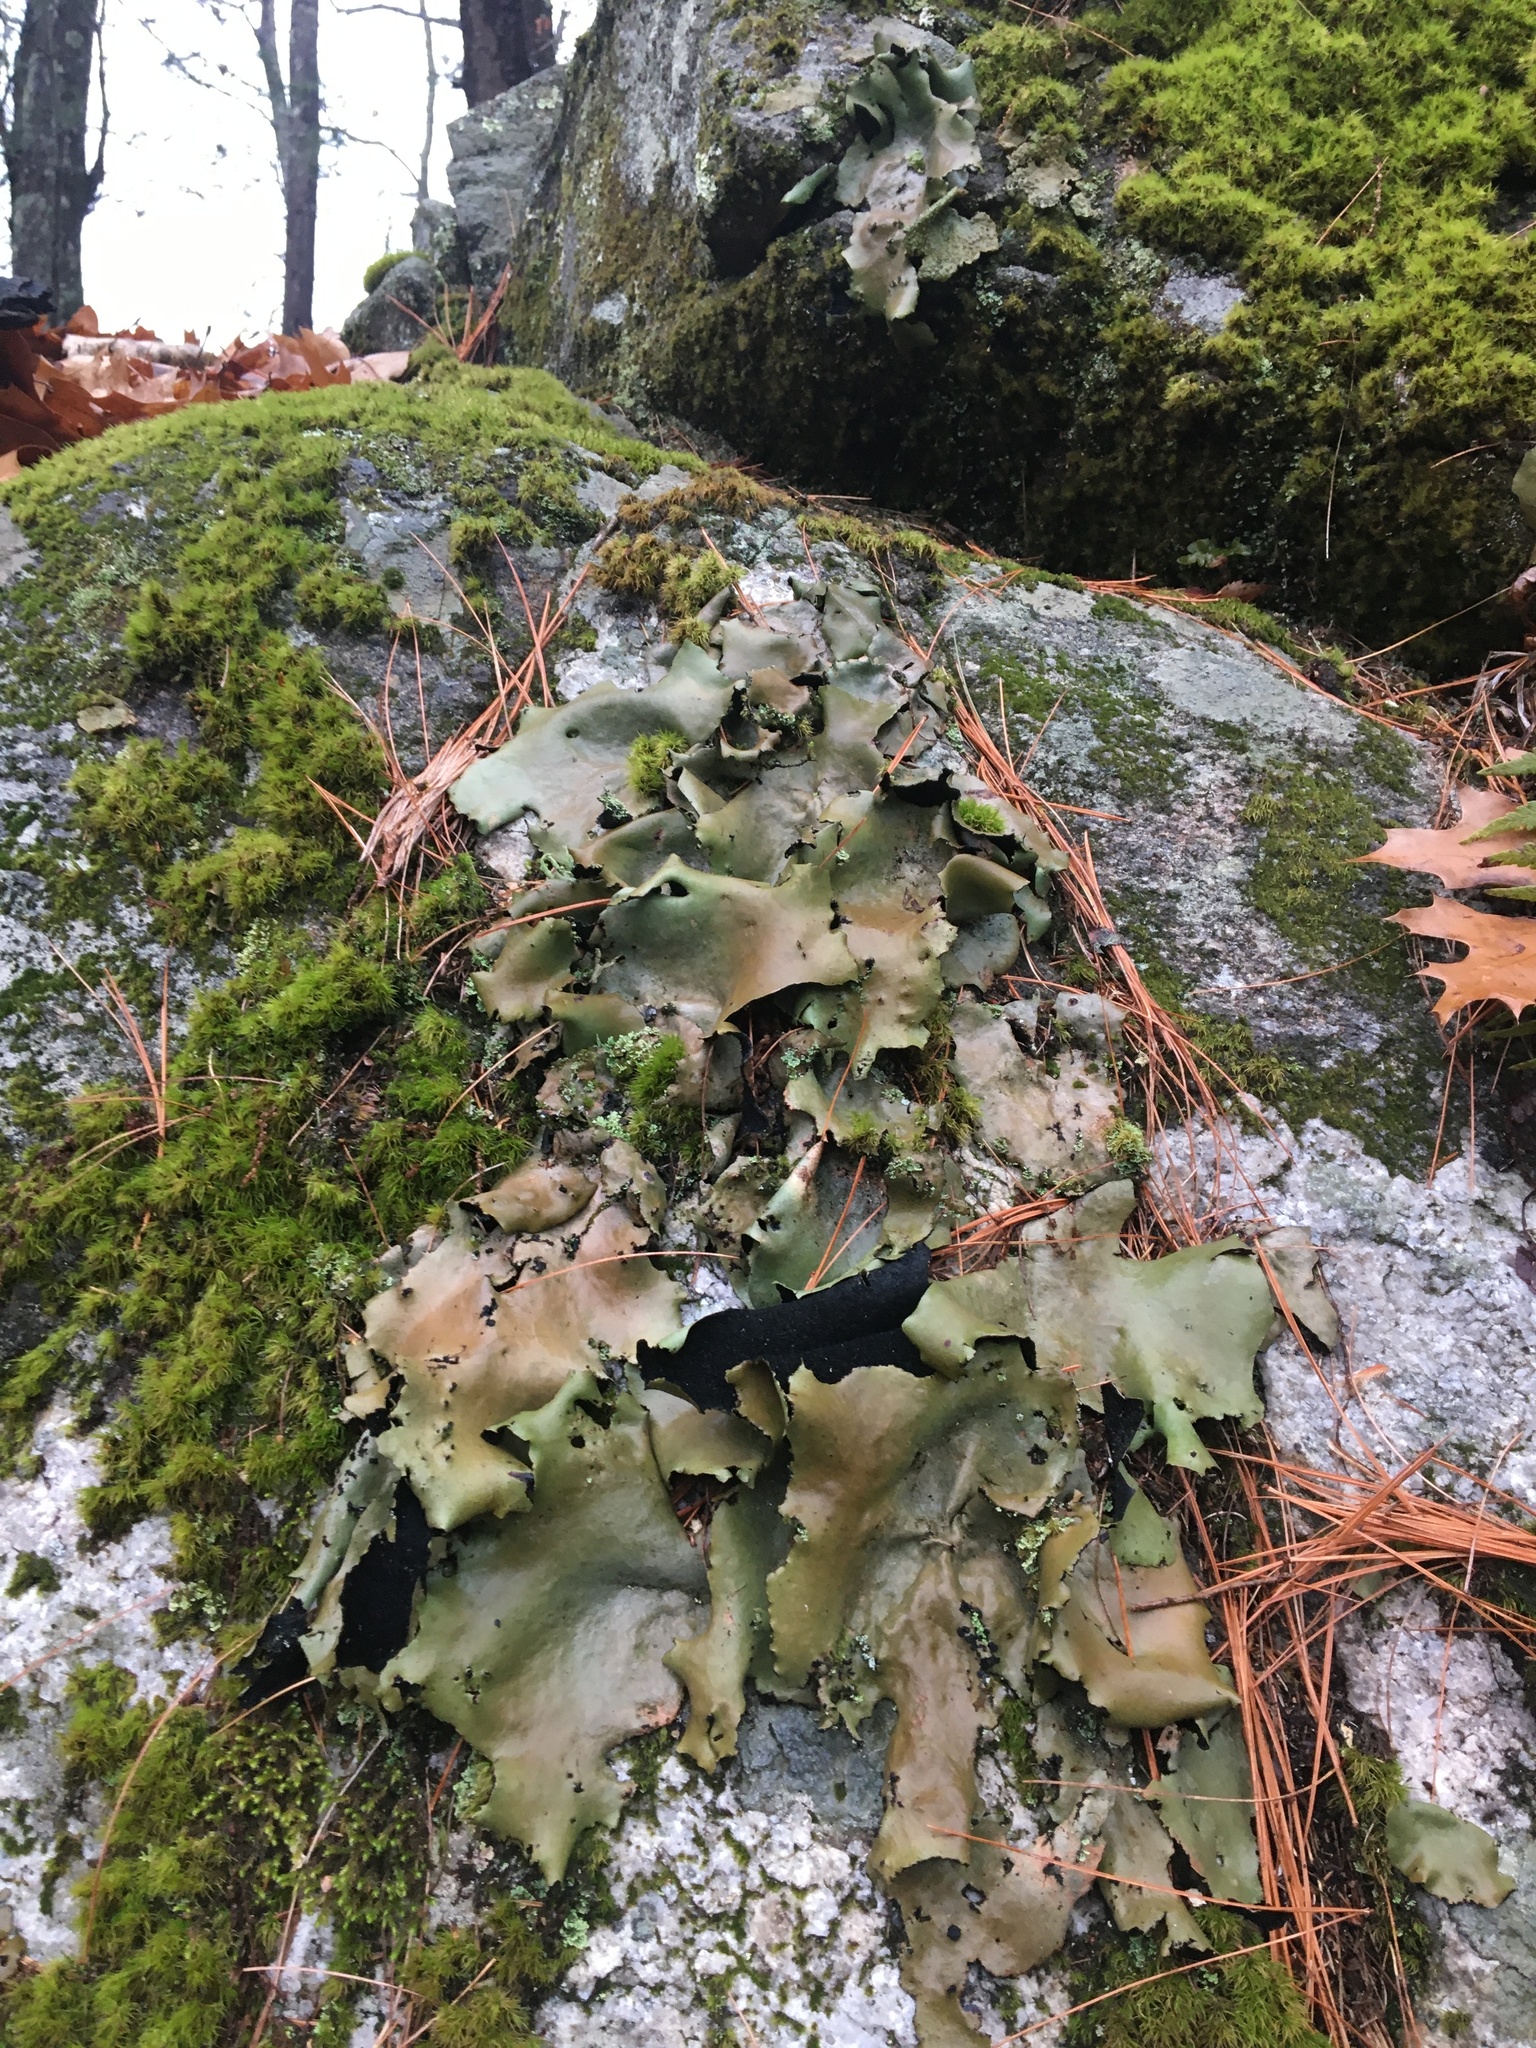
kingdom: Fungi
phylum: Ascomycota
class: Lecanoromycetes
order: Umbilicariales
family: Umbilicariaceae
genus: Umbilicaria
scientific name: Umbilicaria mammulata
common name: Smooth rock tripe
